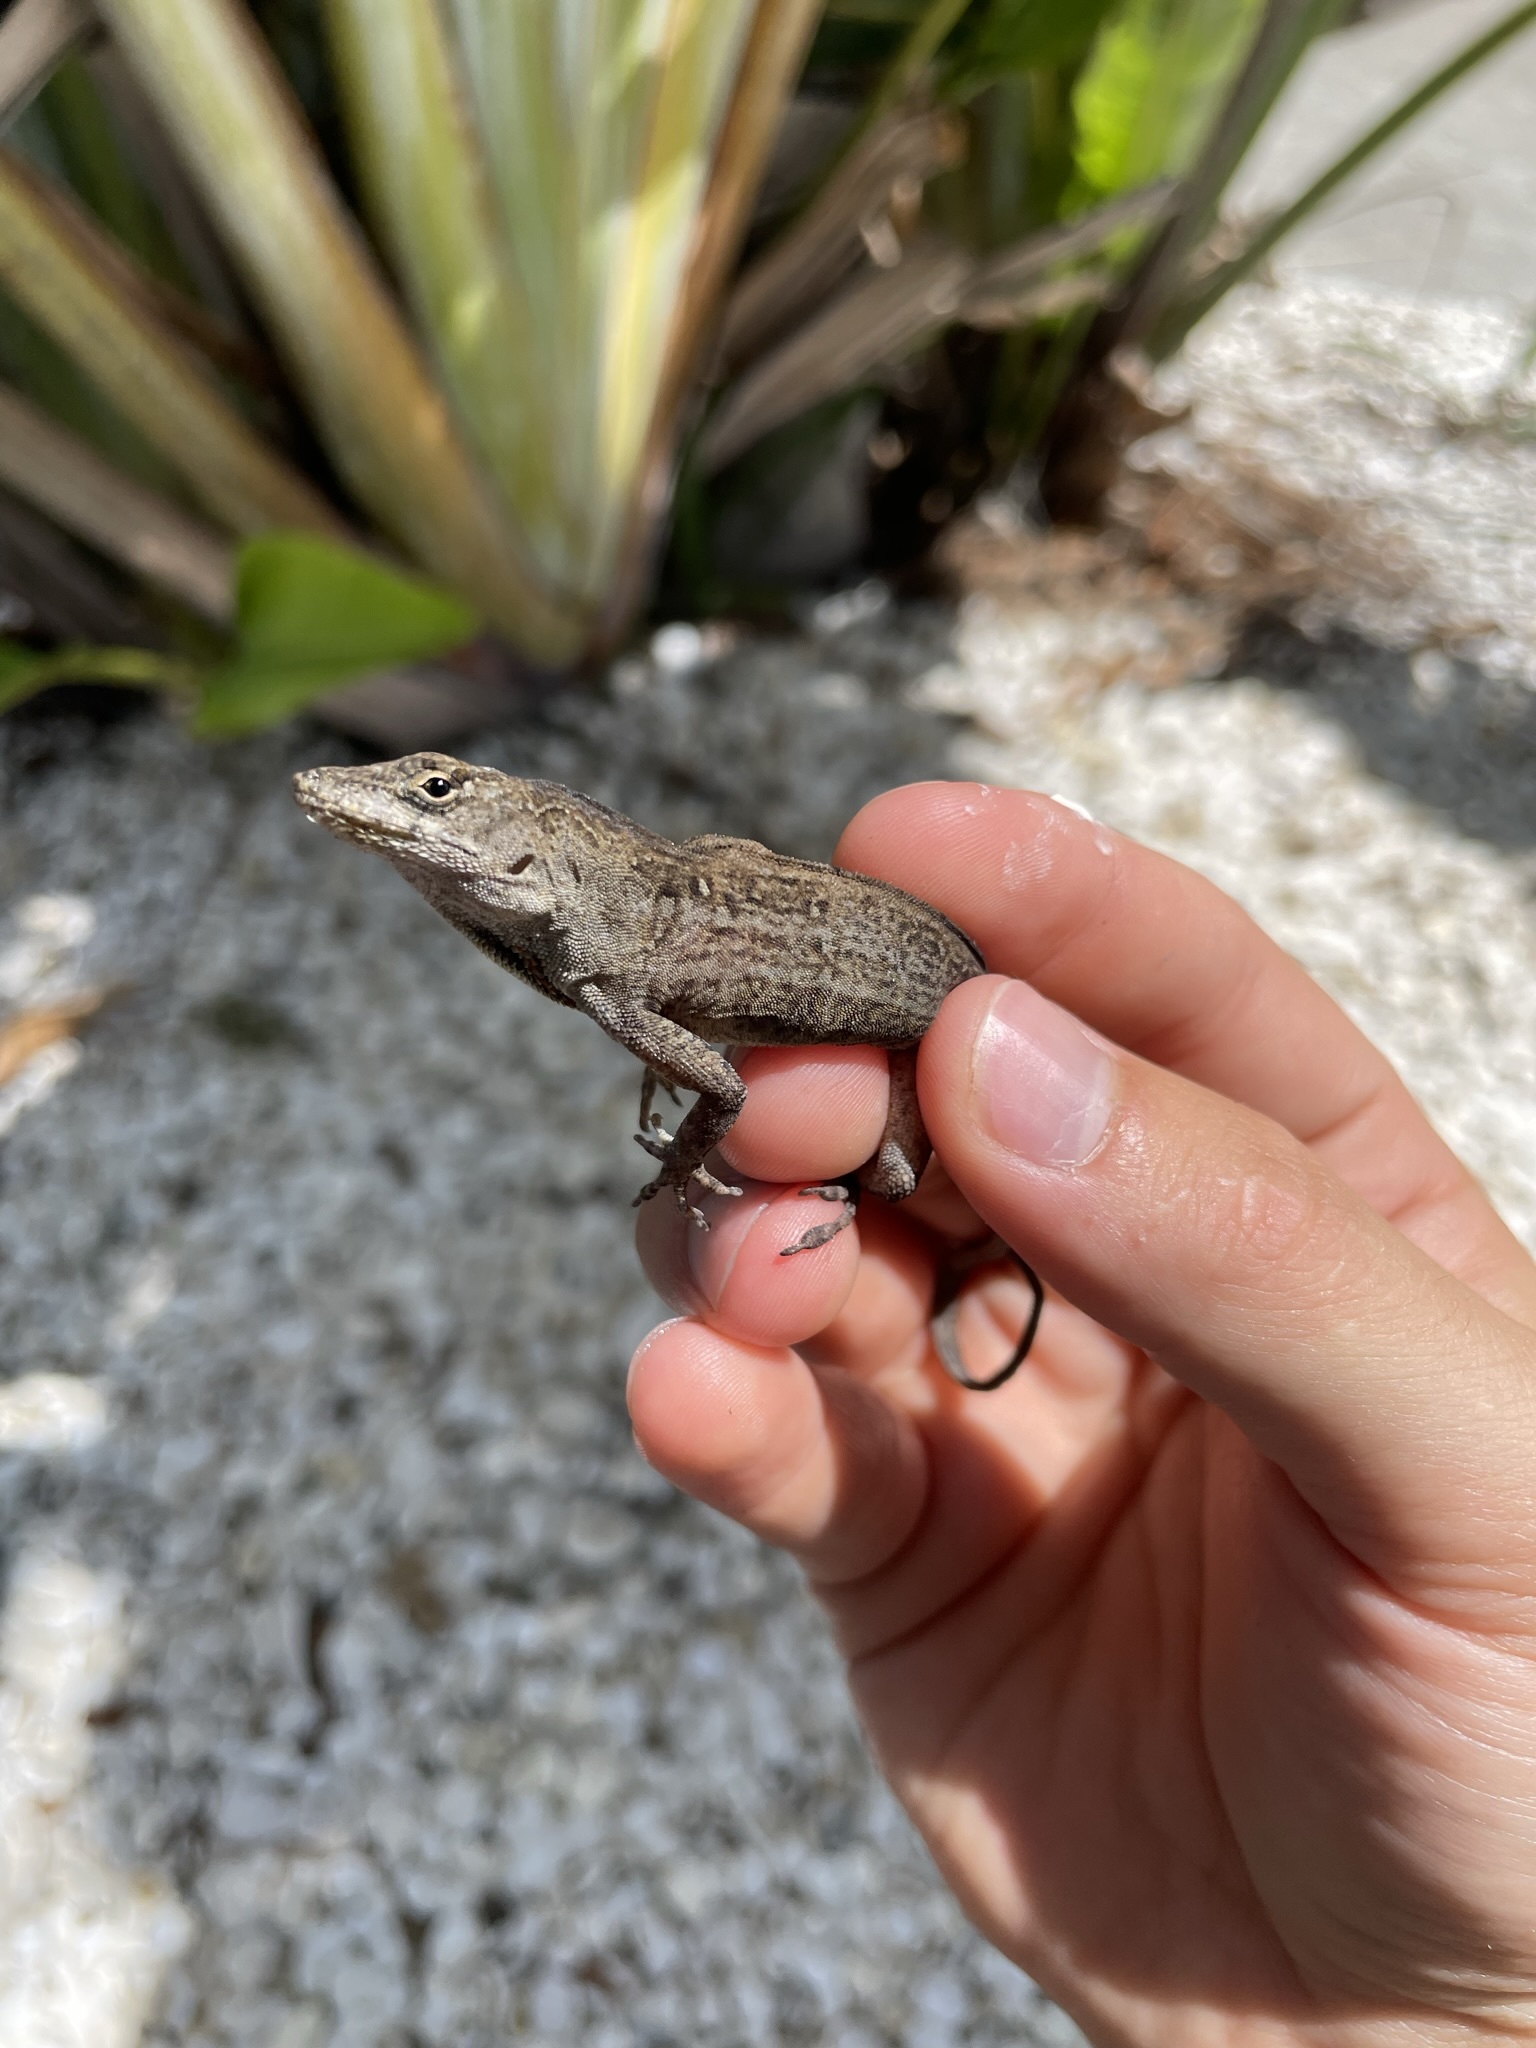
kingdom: Animalia
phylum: Chordata
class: Squamata
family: Dactyloidae
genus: Anolis
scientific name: Anolis sagrei
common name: Brown anole
